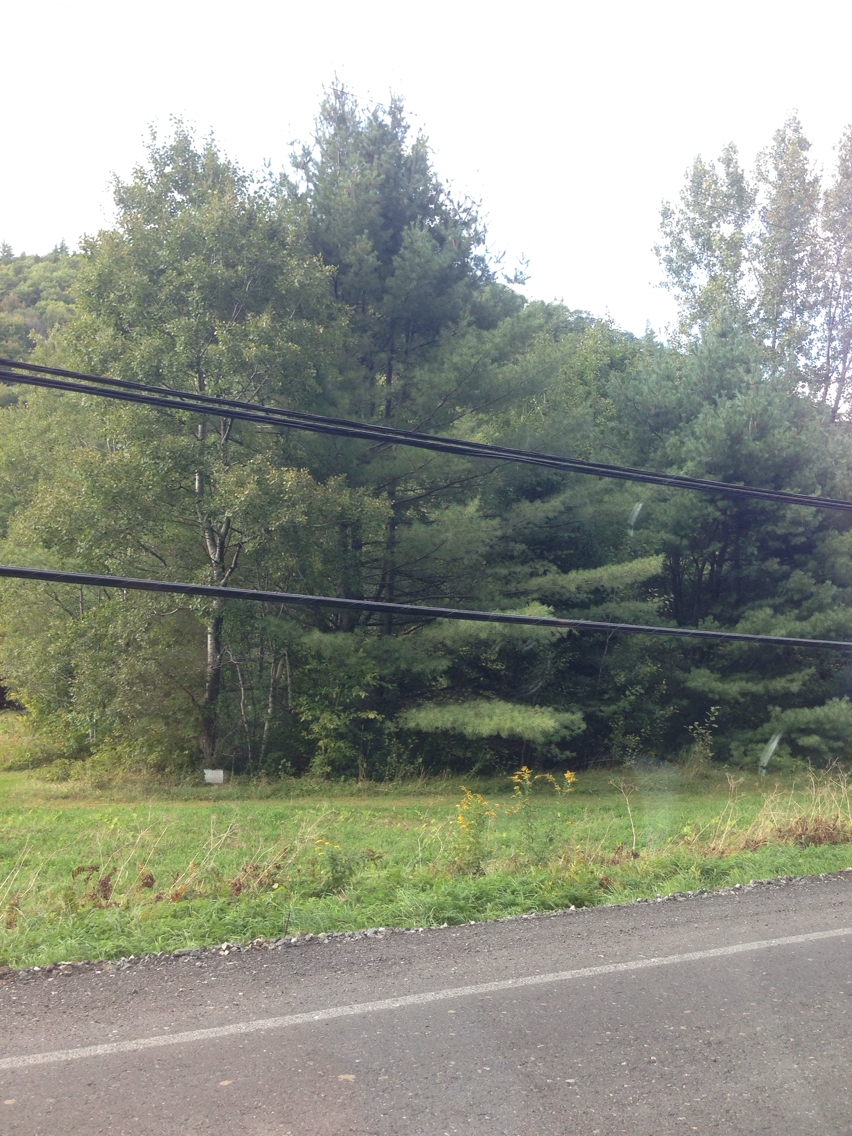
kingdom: Plantae
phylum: Tracheophyta
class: Pinopsida
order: Pinales
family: Pinaceae
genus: Pinus
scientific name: Pinus strobus
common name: Weymouth pine
